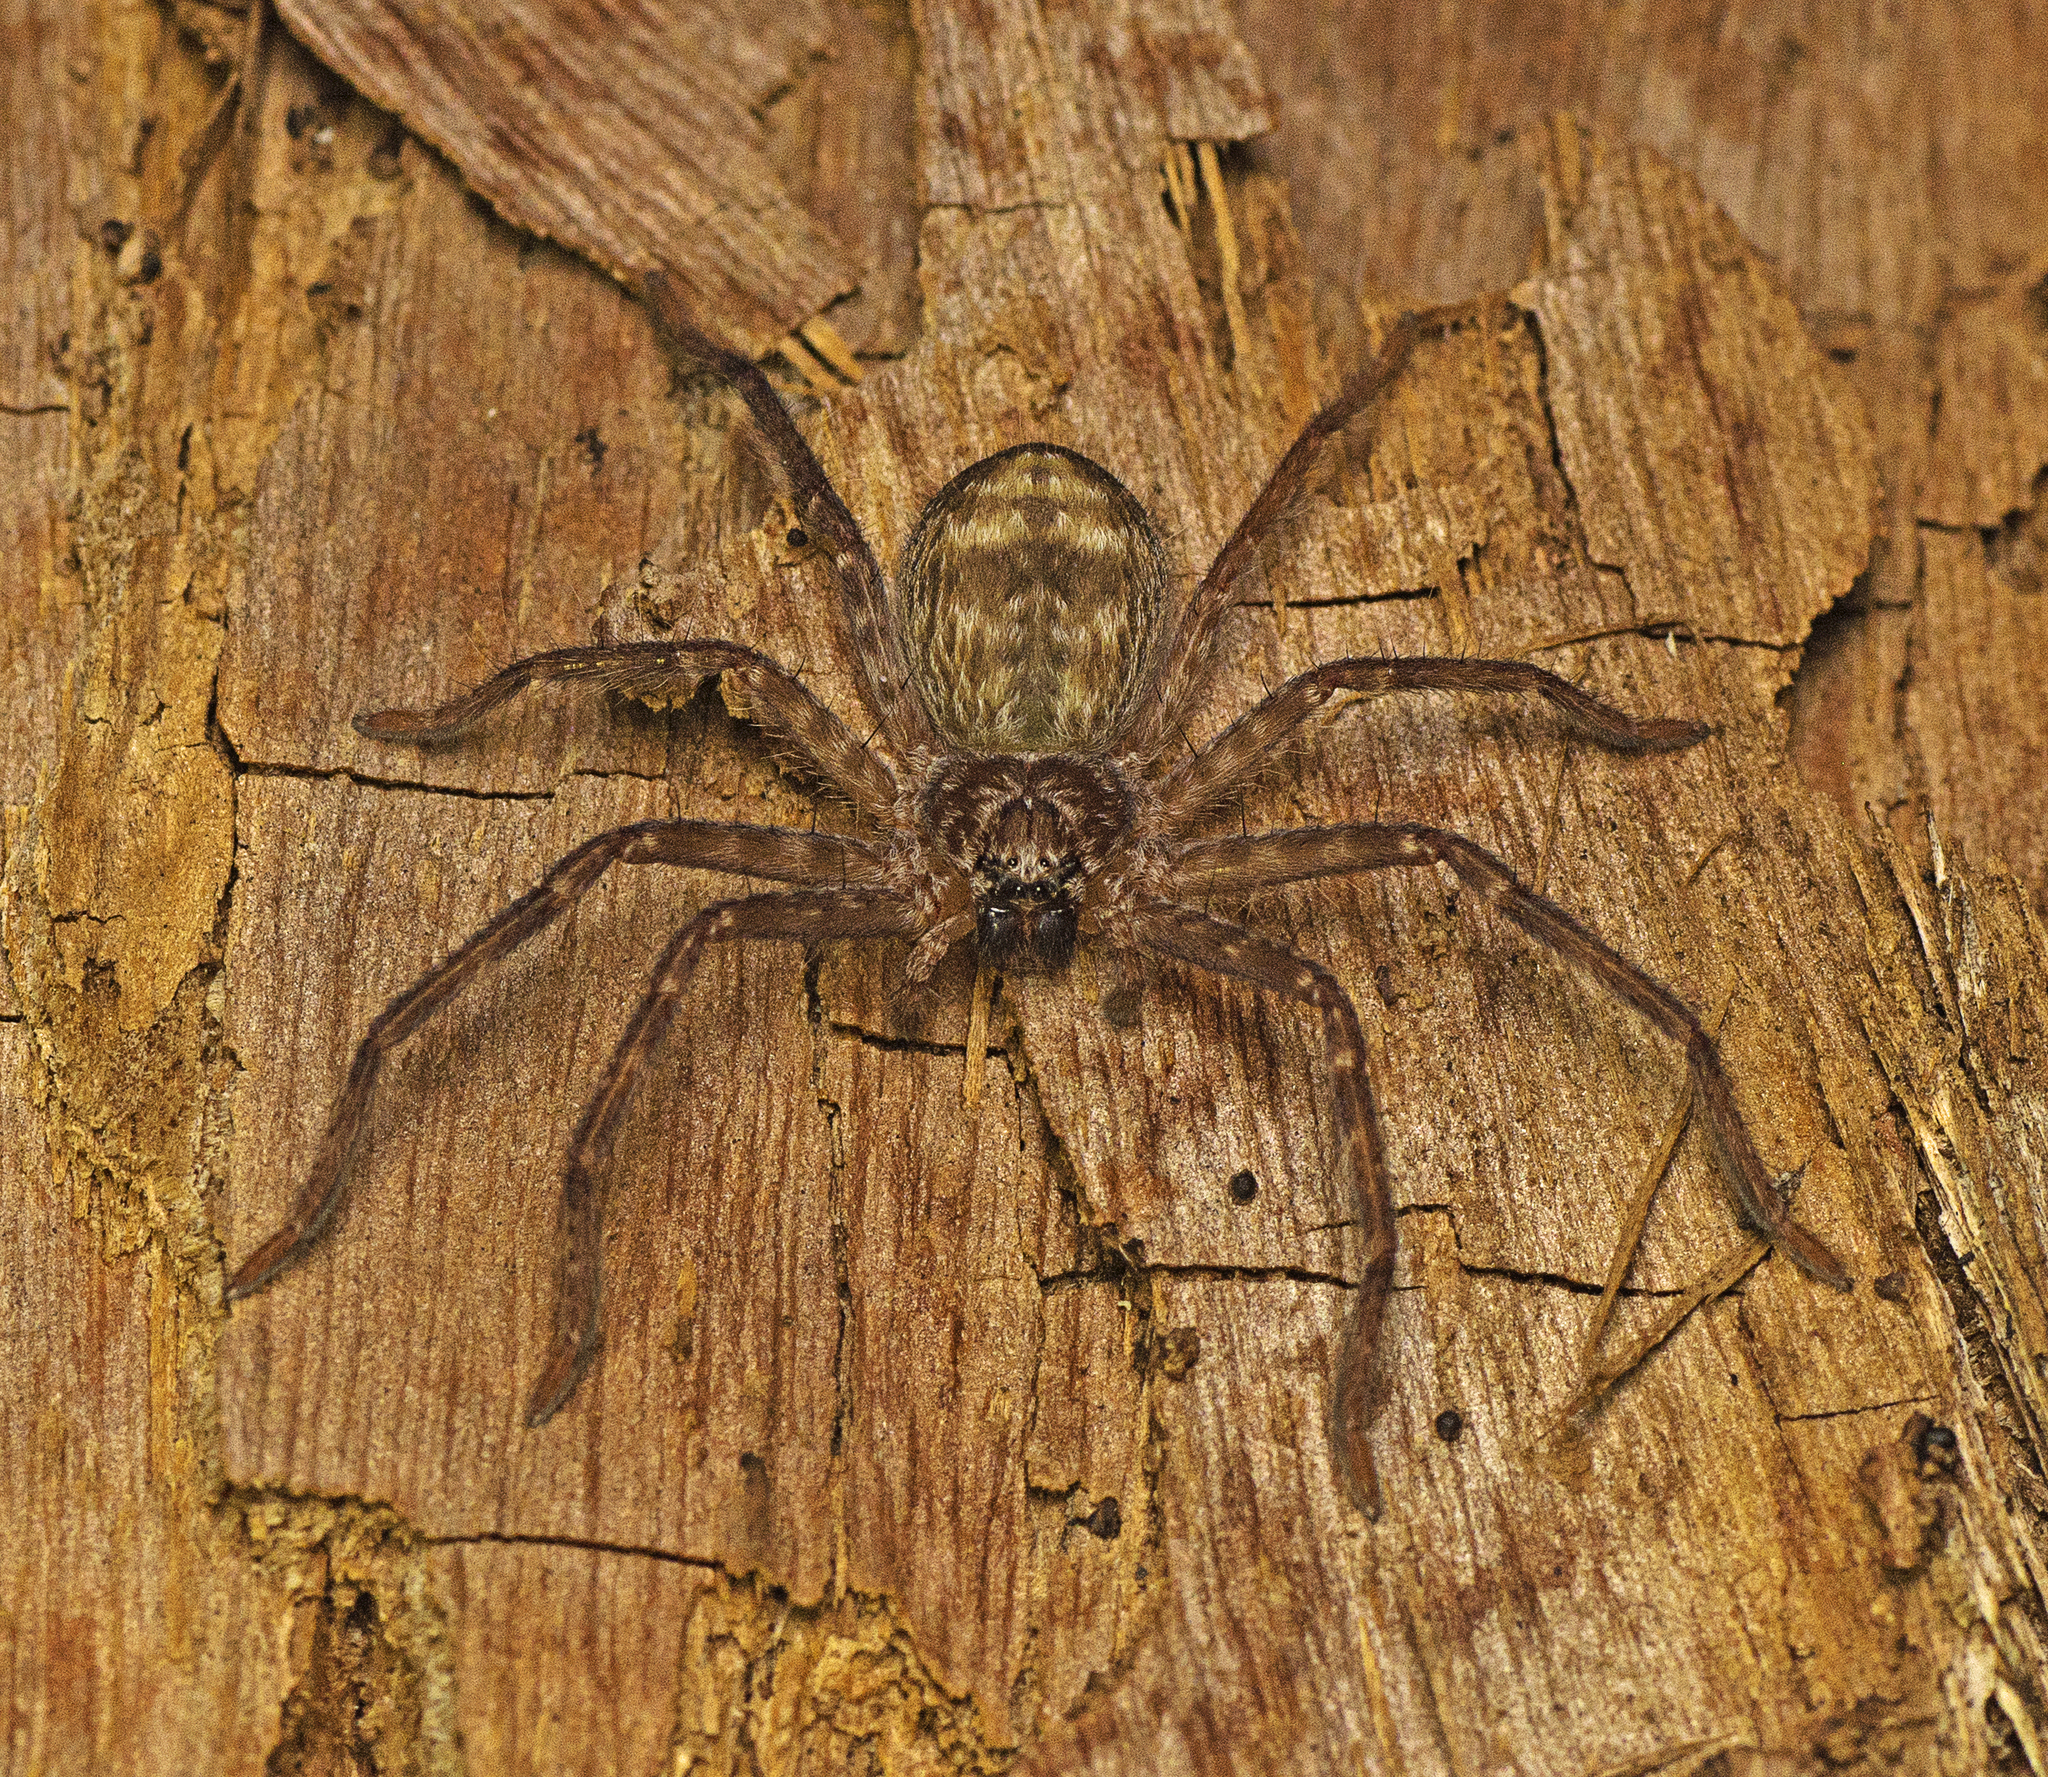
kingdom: Animalia
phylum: Arthropoda
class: Arachnida
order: Araneae
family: Sparassidae
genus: Holconia
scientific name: Holconia immanis
